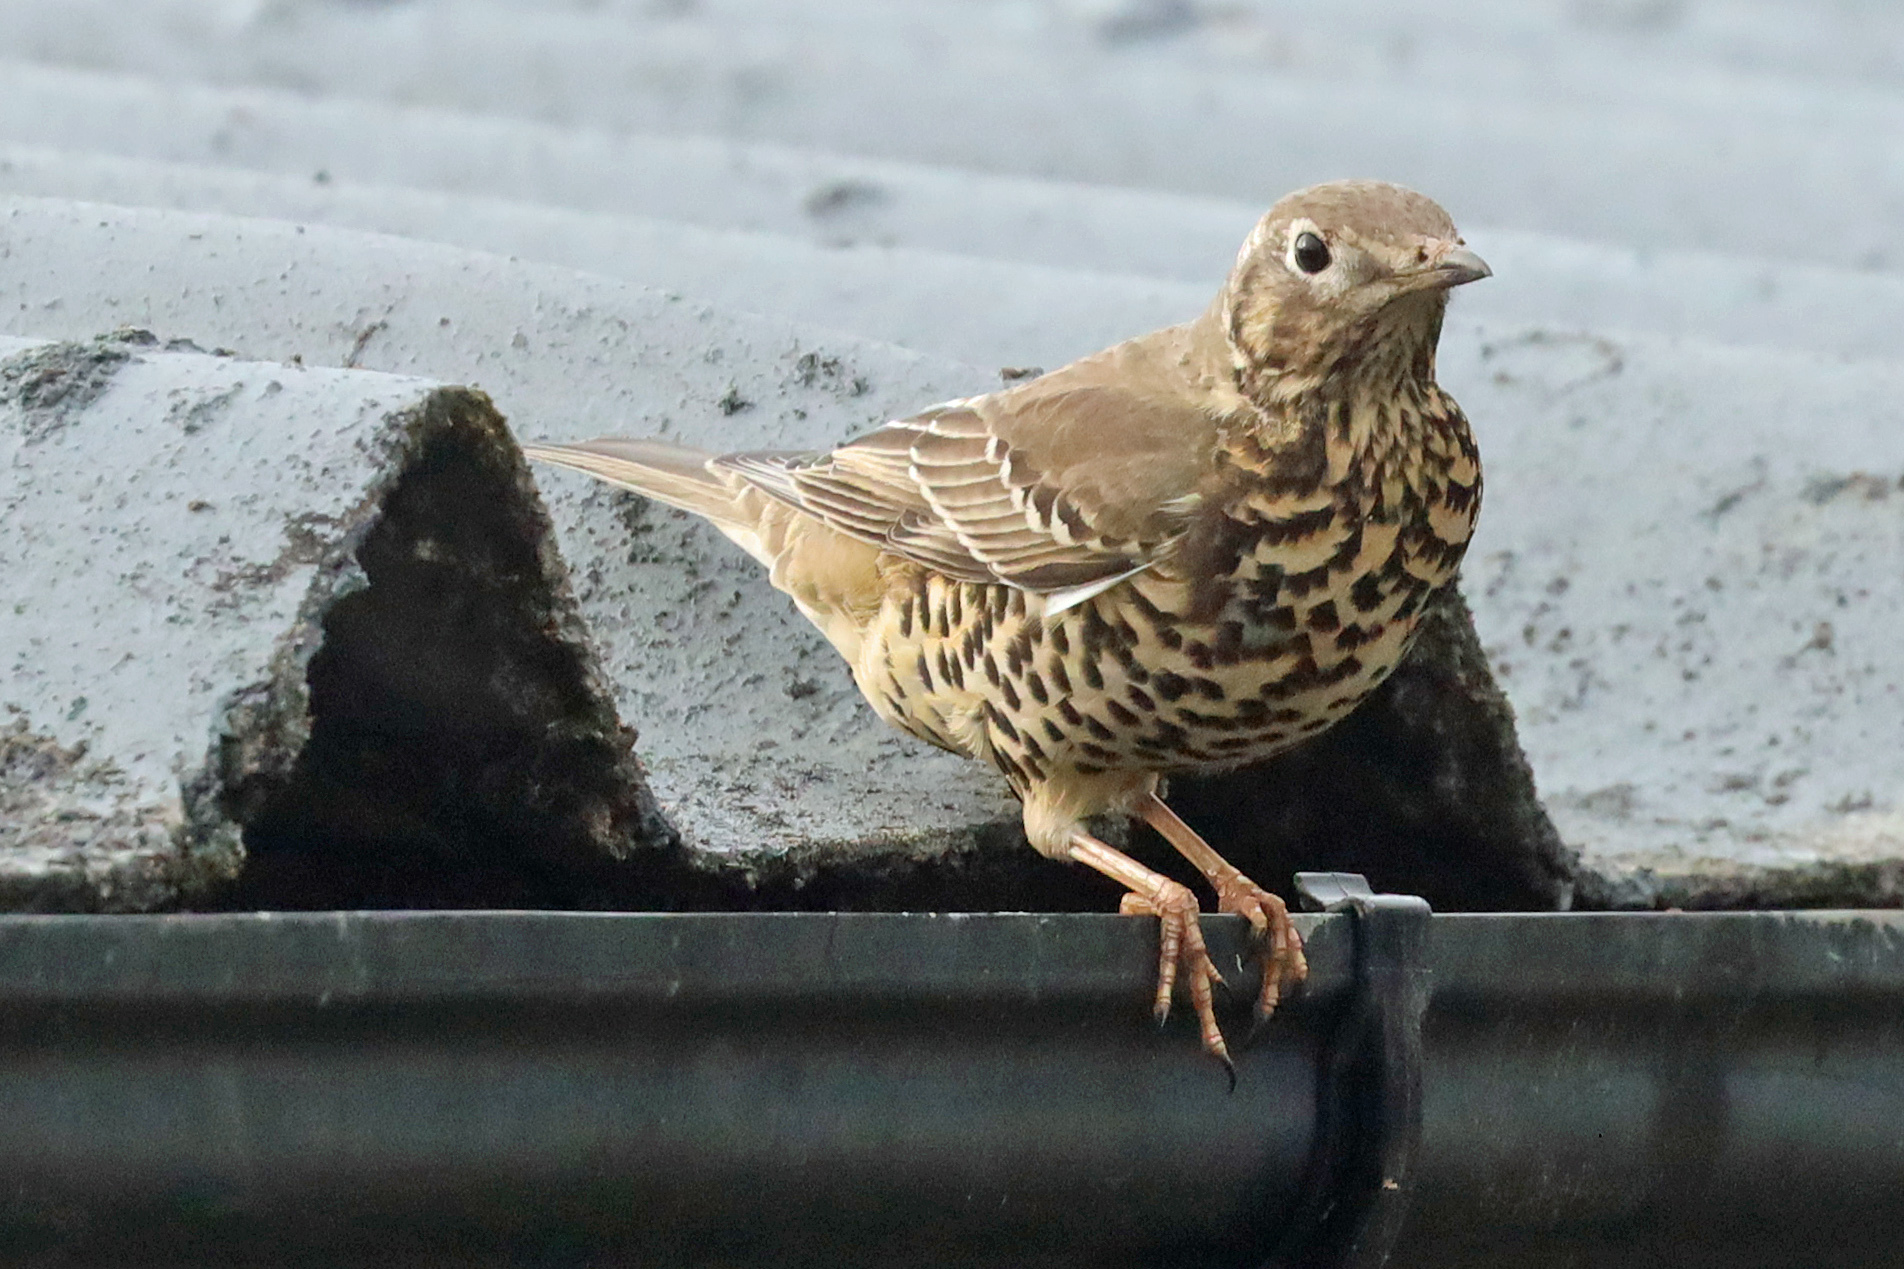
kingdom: Animalia
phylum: Chordata
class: Aves
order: Passeriformes
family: Turdidae
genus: Turdus
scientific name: Turdus viscivorus
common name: Mistle thrush
